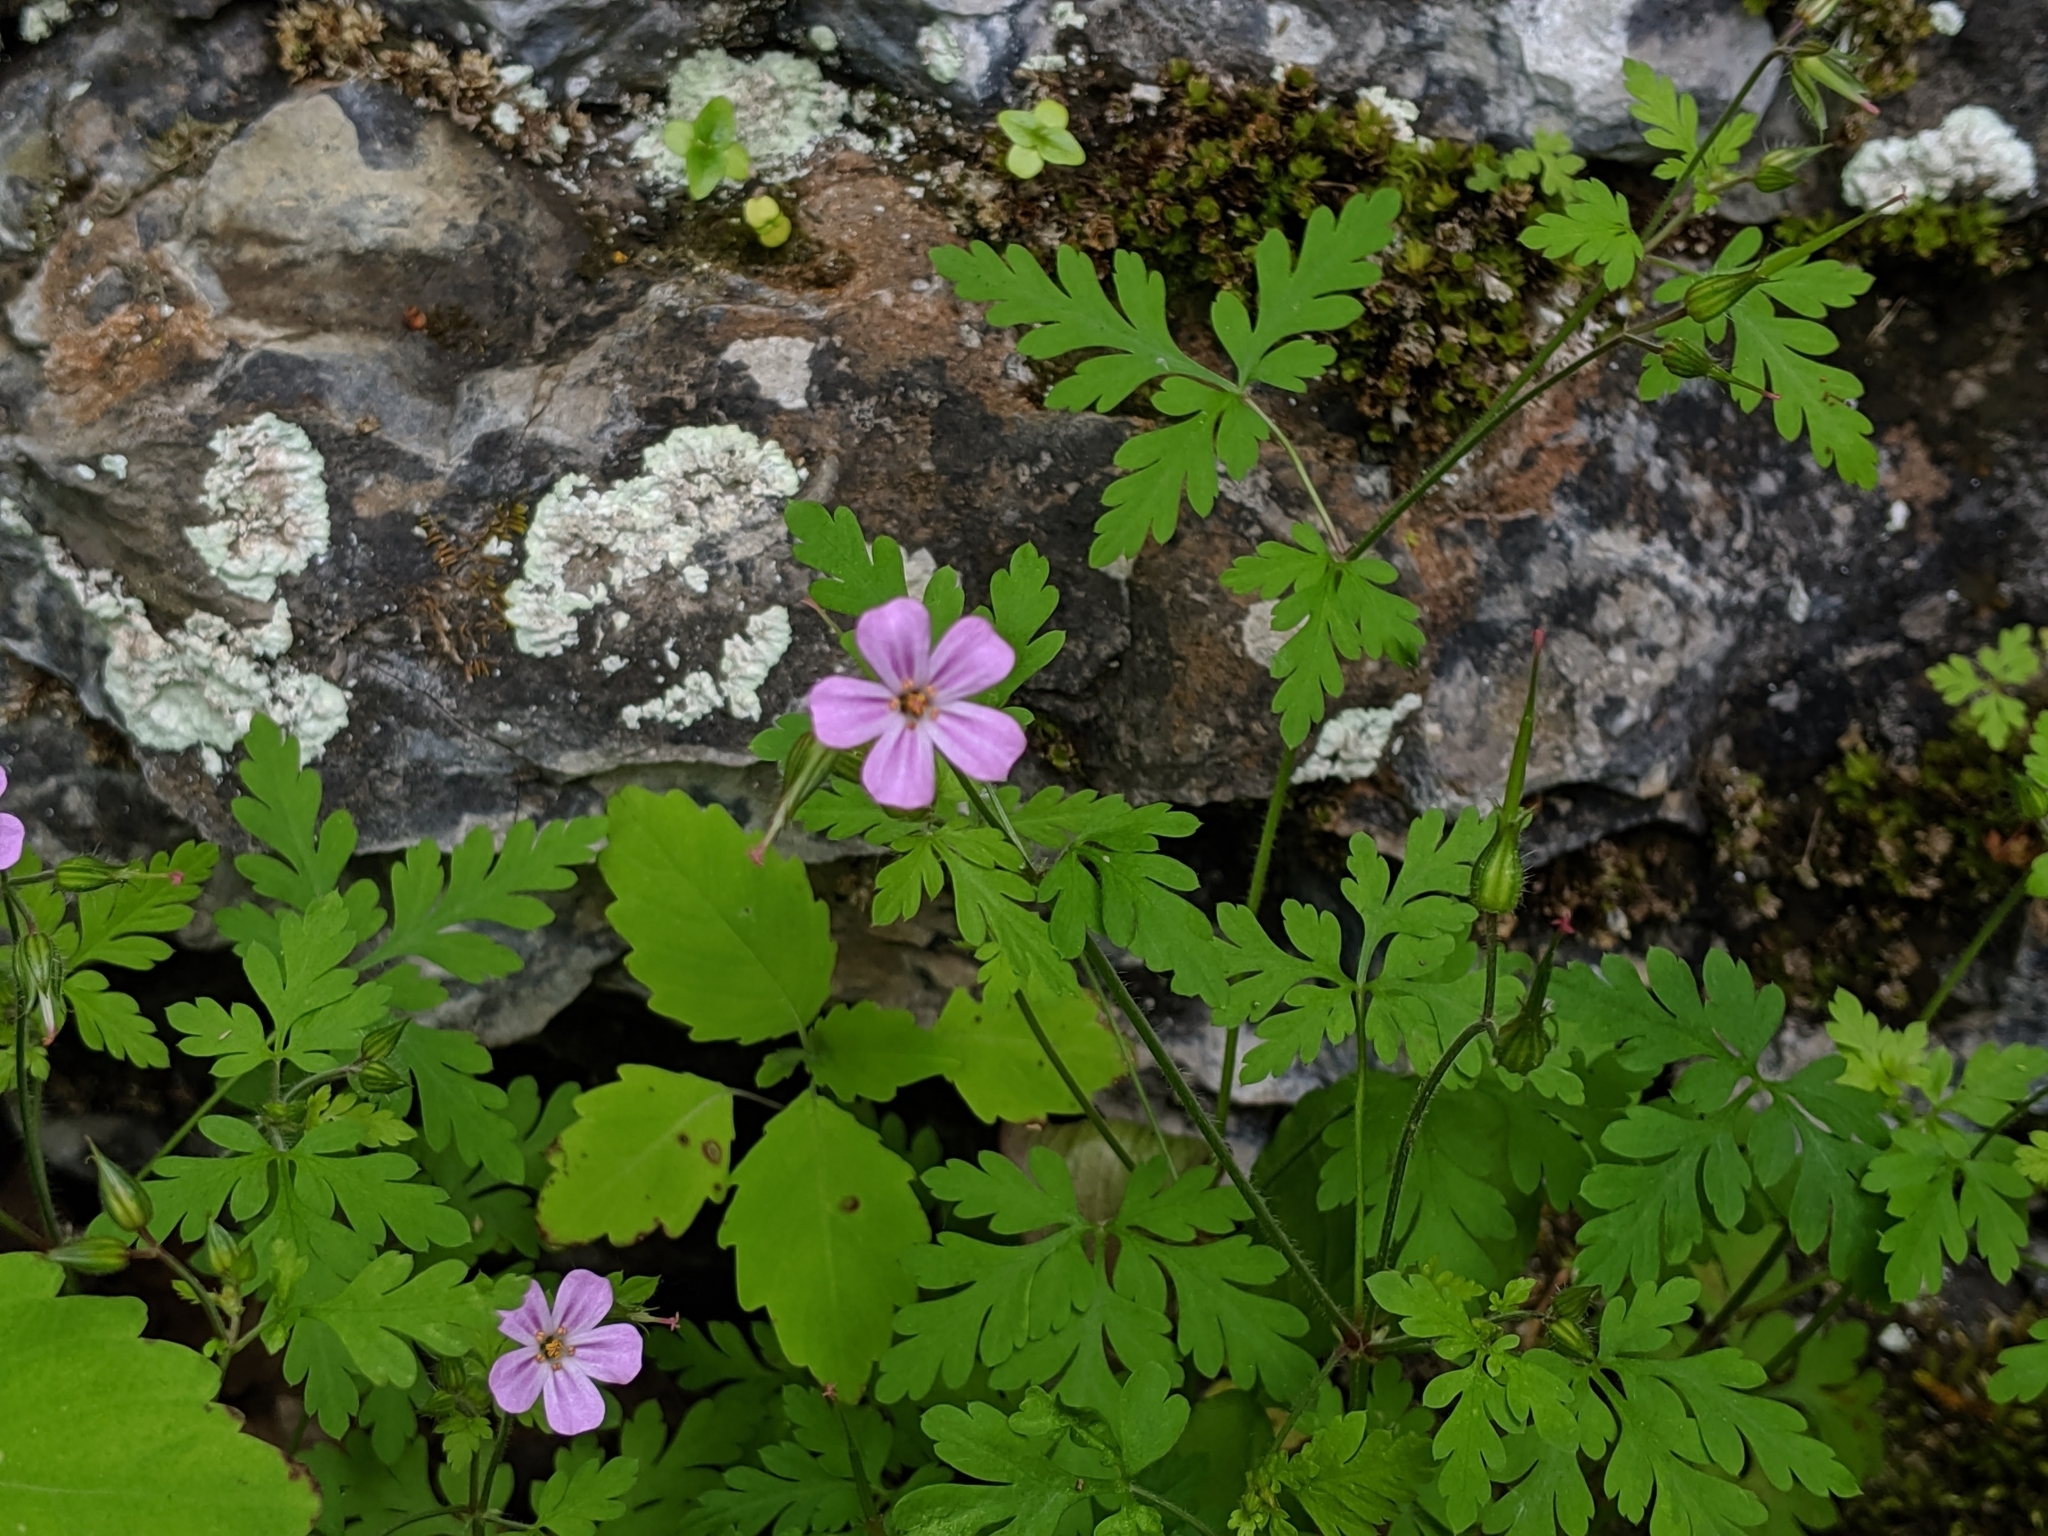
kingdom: Plantae
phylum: Tracheophyta
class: Magnoliopsida
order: Geraniales
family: Geraniaceae
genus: Geranium
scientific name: Geranium robertianum
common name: Herb-robert
